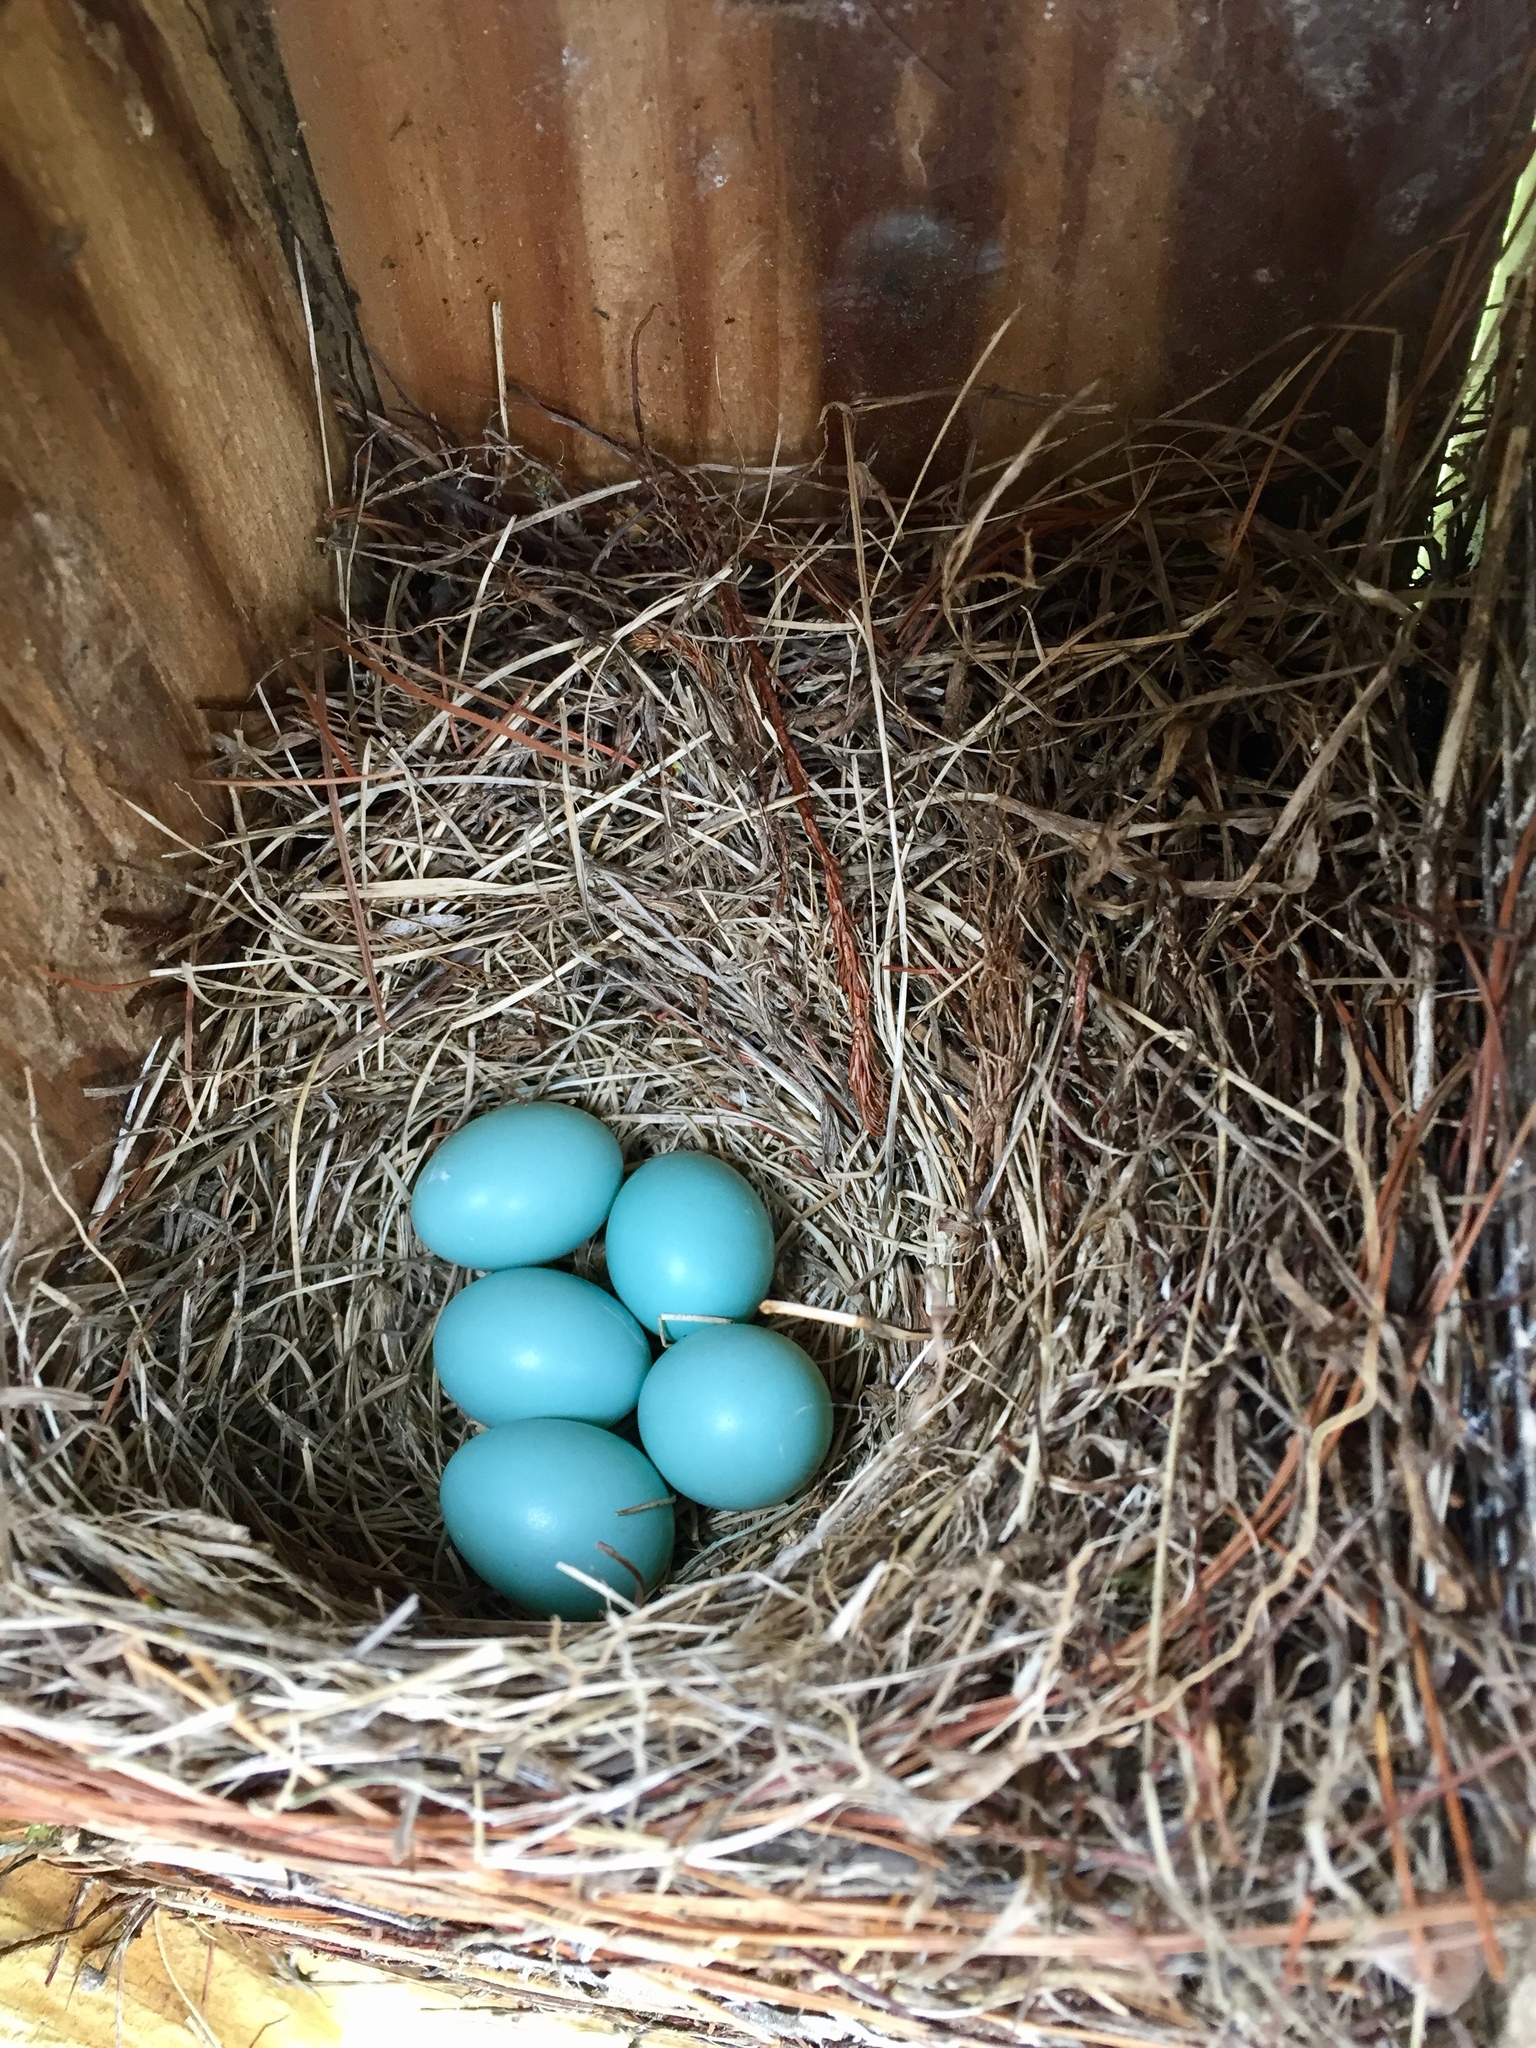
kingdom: Animalia
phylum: Chordata
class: Aves
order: Passeriformes
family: Turdidae
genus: Sialia
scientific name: Sialia sialis
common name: Eastern bluebird
